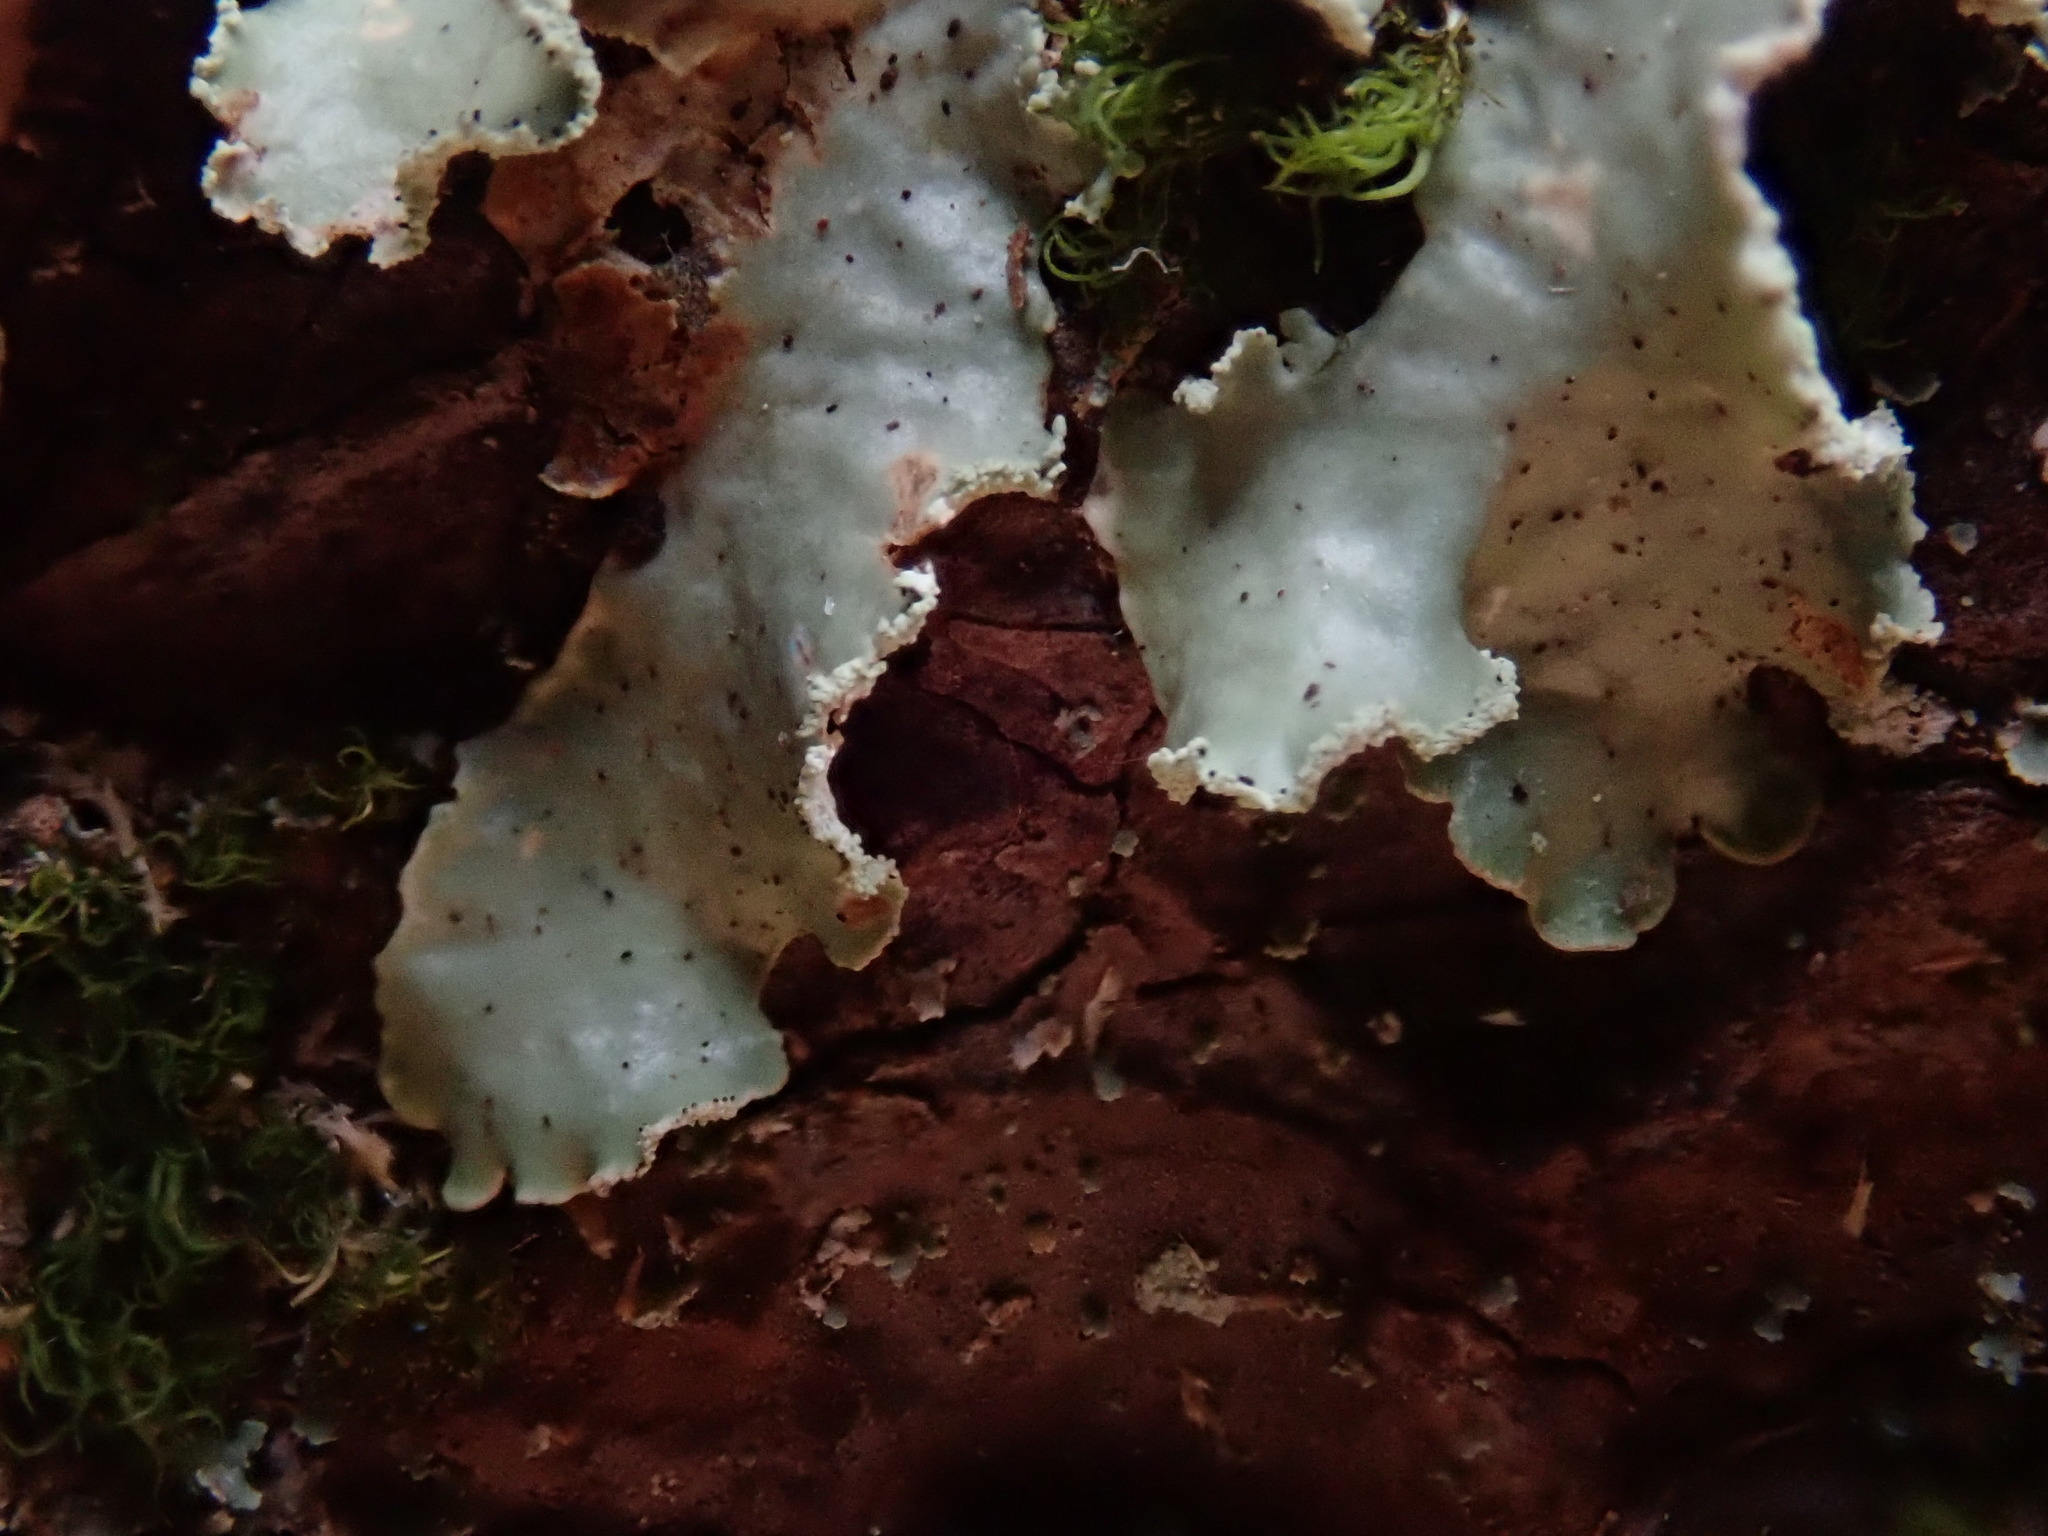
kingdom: Fungi
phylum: Ascomycota
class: Lecanoromycetes
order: Lecanorales
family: Parmeliaceae
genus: Usnocetraria
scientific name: Usnocetraria oakesiana
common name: Yellow ribbon lichen
